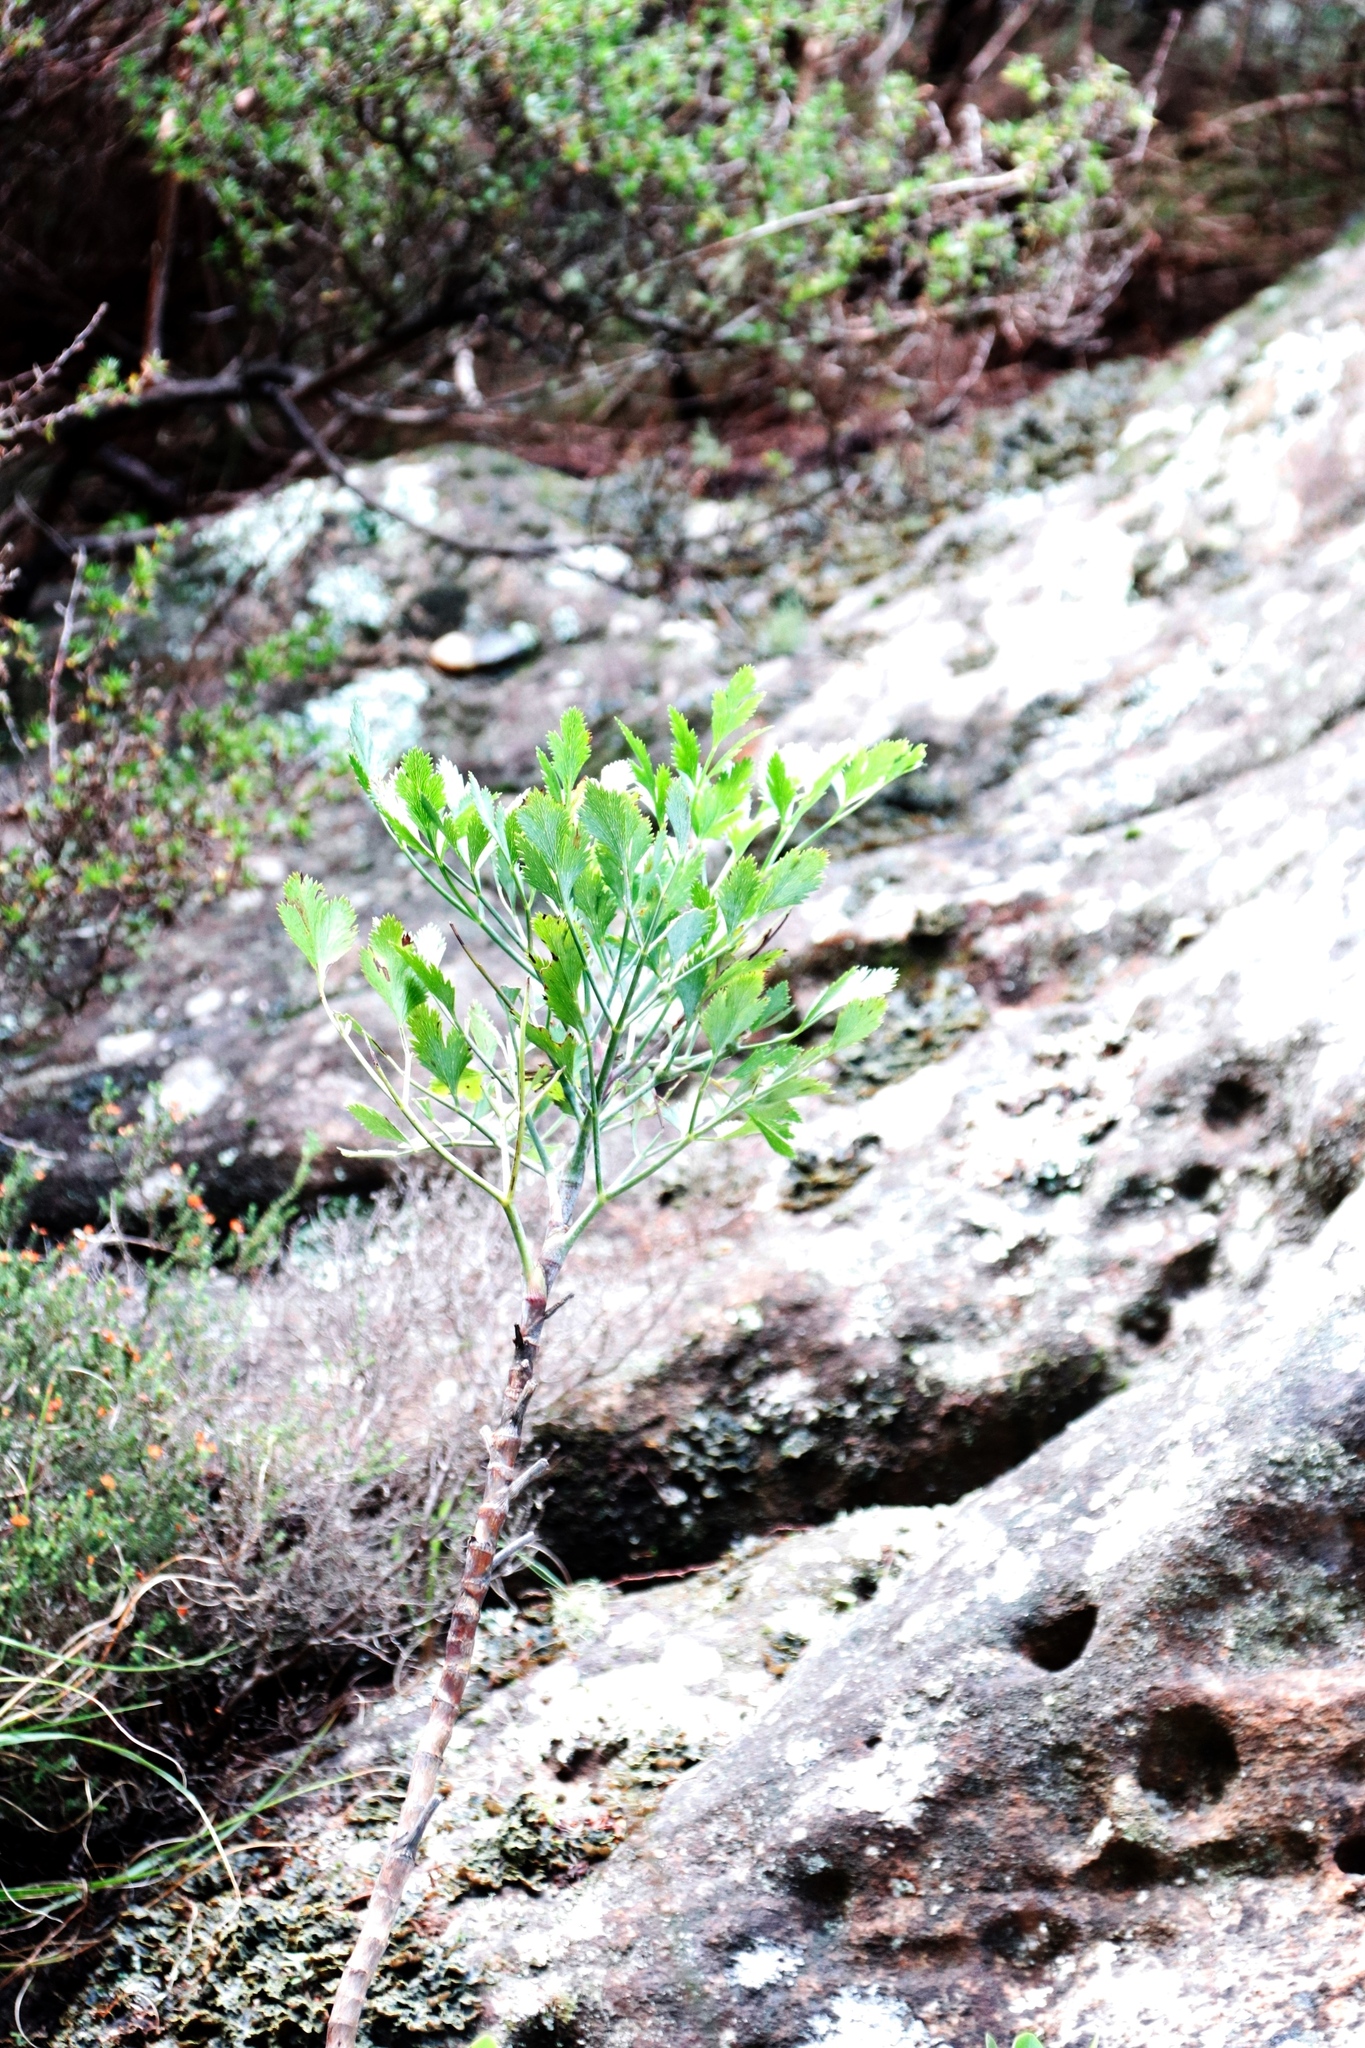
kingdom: Plantae
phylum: Tracheophyta
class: Magnoliopsida
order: Apiales
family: Apiaceae
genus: Notobubon
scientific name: Notobubon galbanum
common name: Blisterbush
